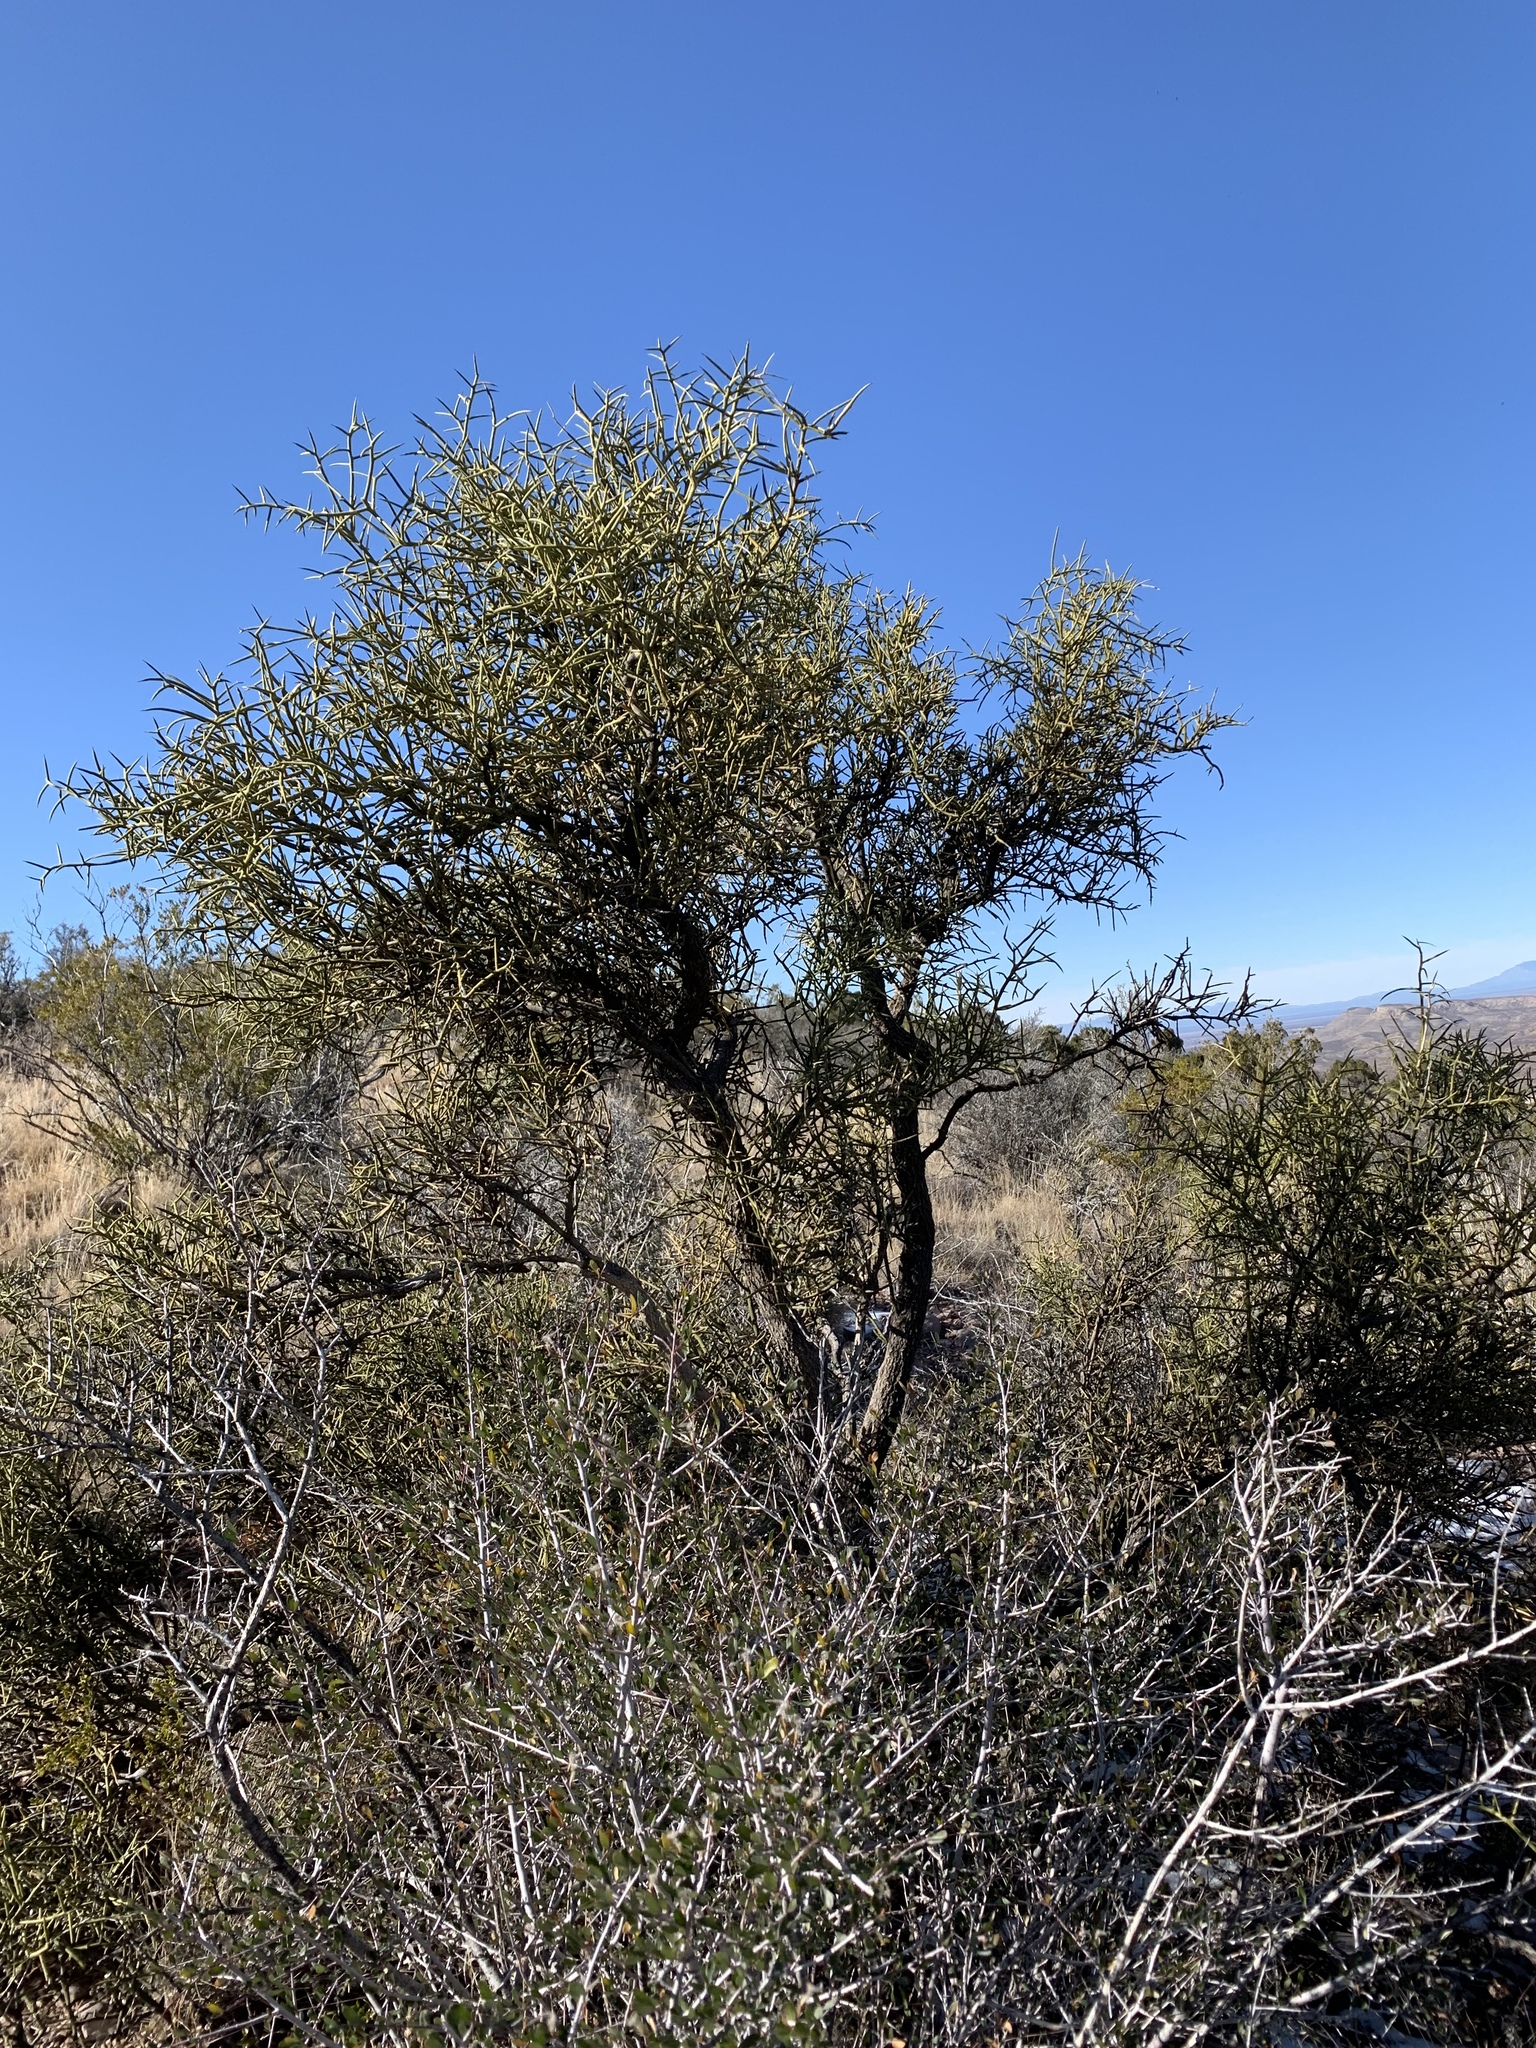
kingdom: Plantae
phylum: Tracheophyta
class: Magnoliopsida
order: Brassicales
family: Koeberliniaceae
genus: Koeberlinia
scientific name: Koeberlinia spinosa
